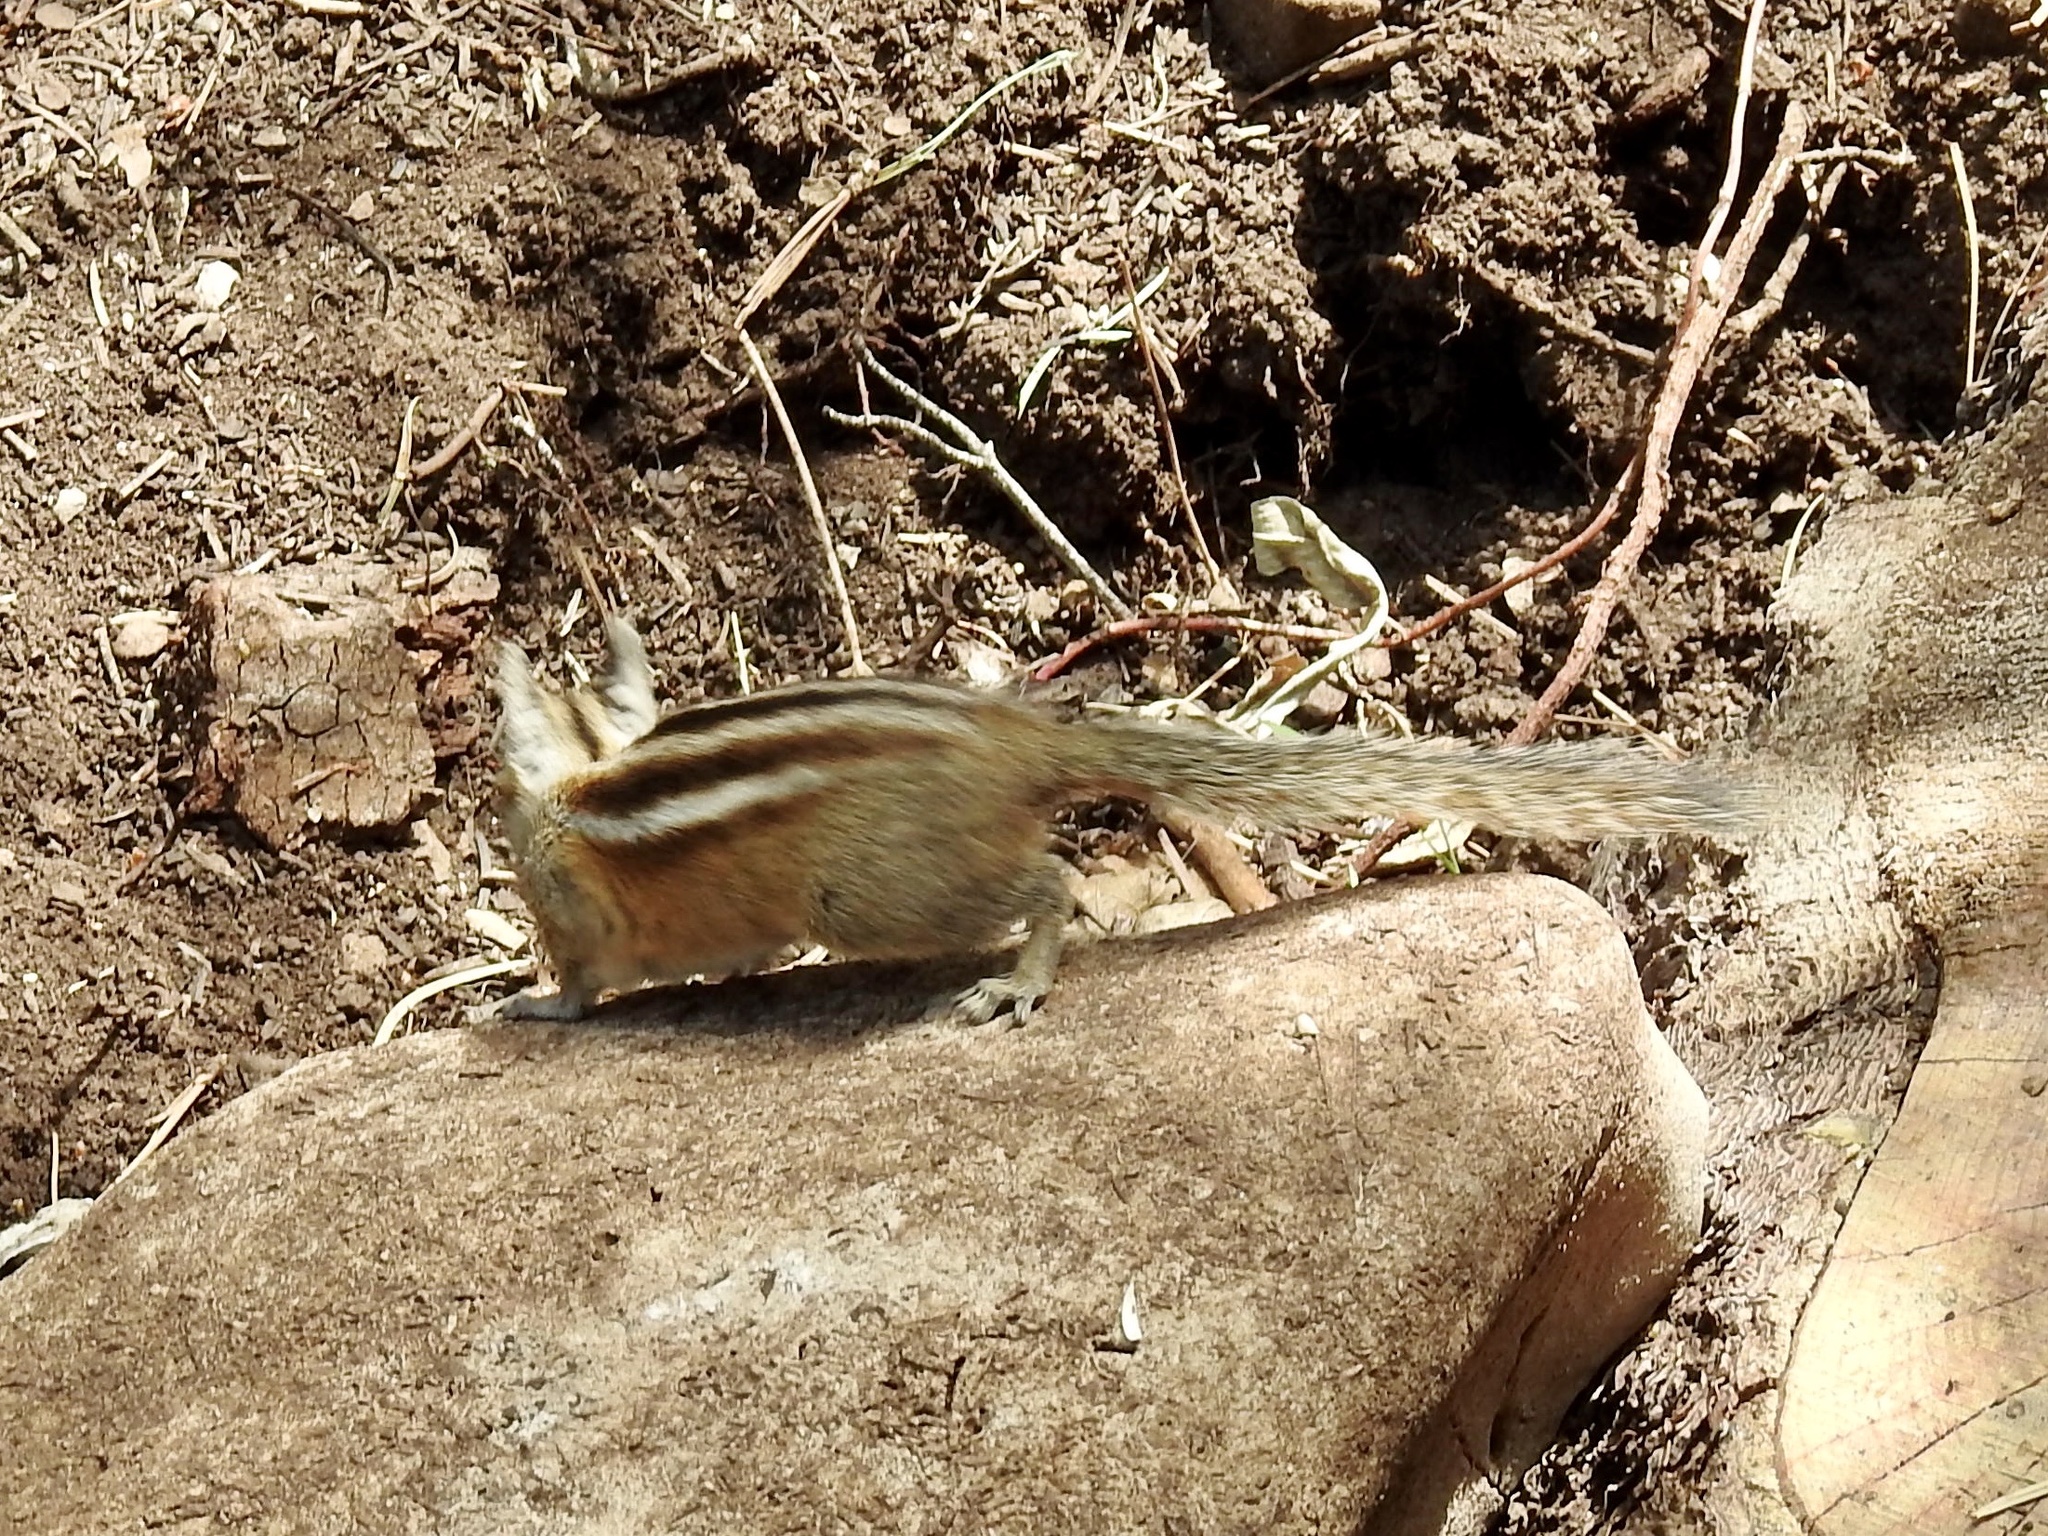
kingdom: Animalia
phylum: Chordata
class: Mammalia
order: Rodentia
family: Sciuridae
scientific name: Sciuridae
